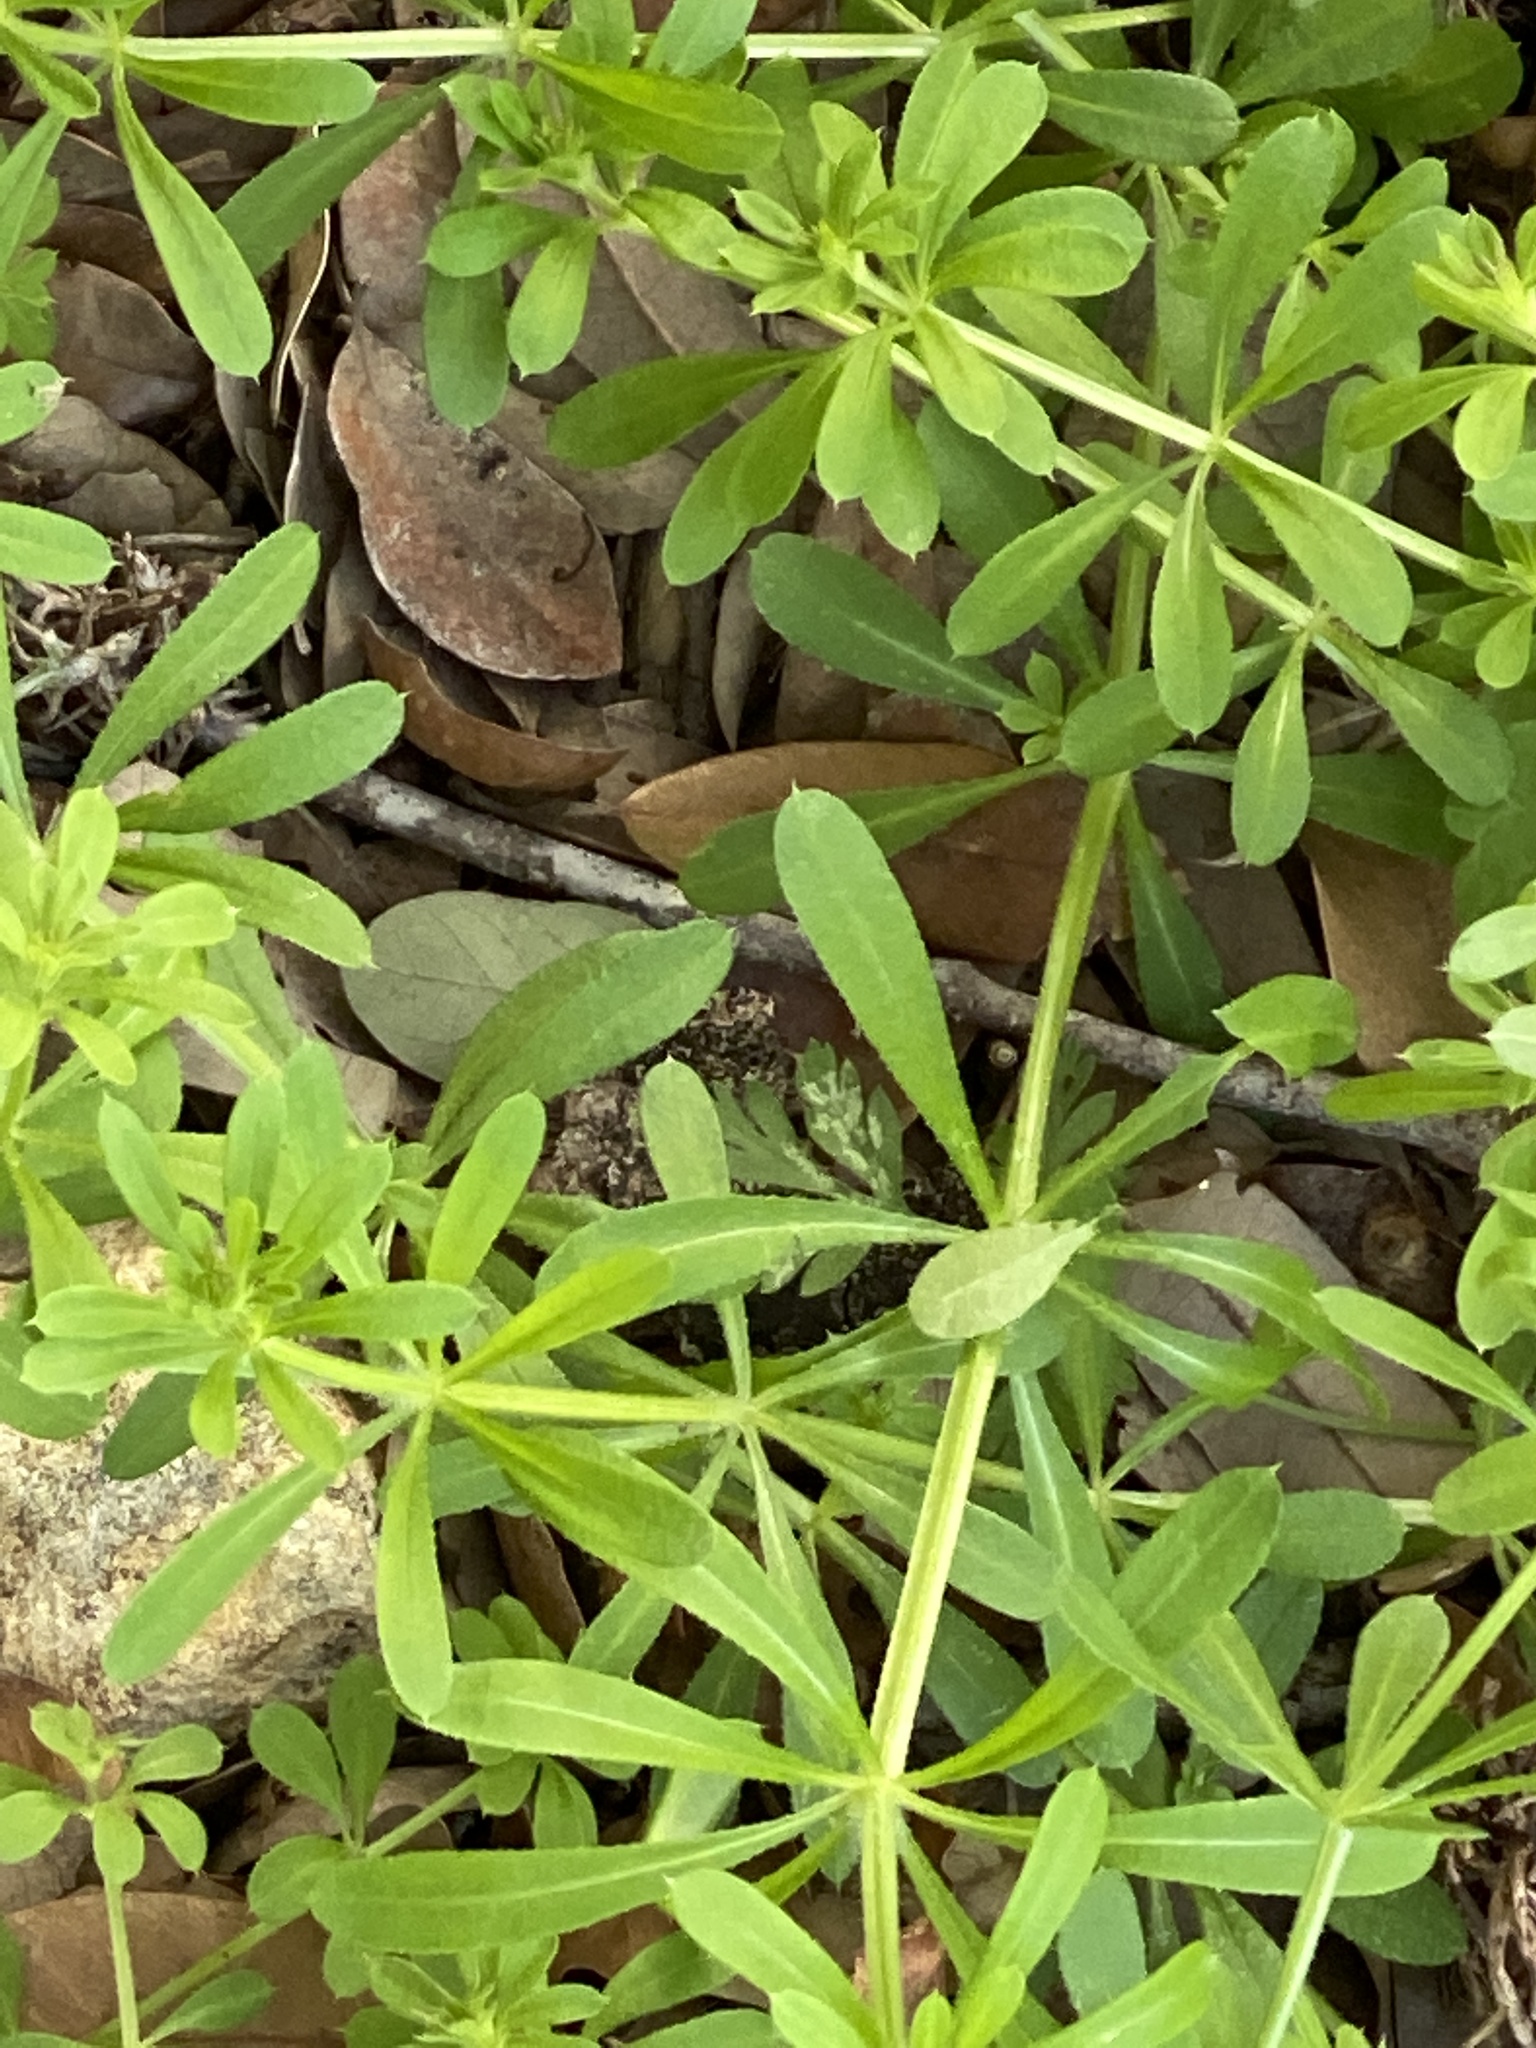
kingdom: Plantae
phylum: Tracheophyta
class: Magnoliopsida
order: Gentianales
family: Rubiaceae
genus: Galium
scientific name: Galium aparine
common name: Cleavers
